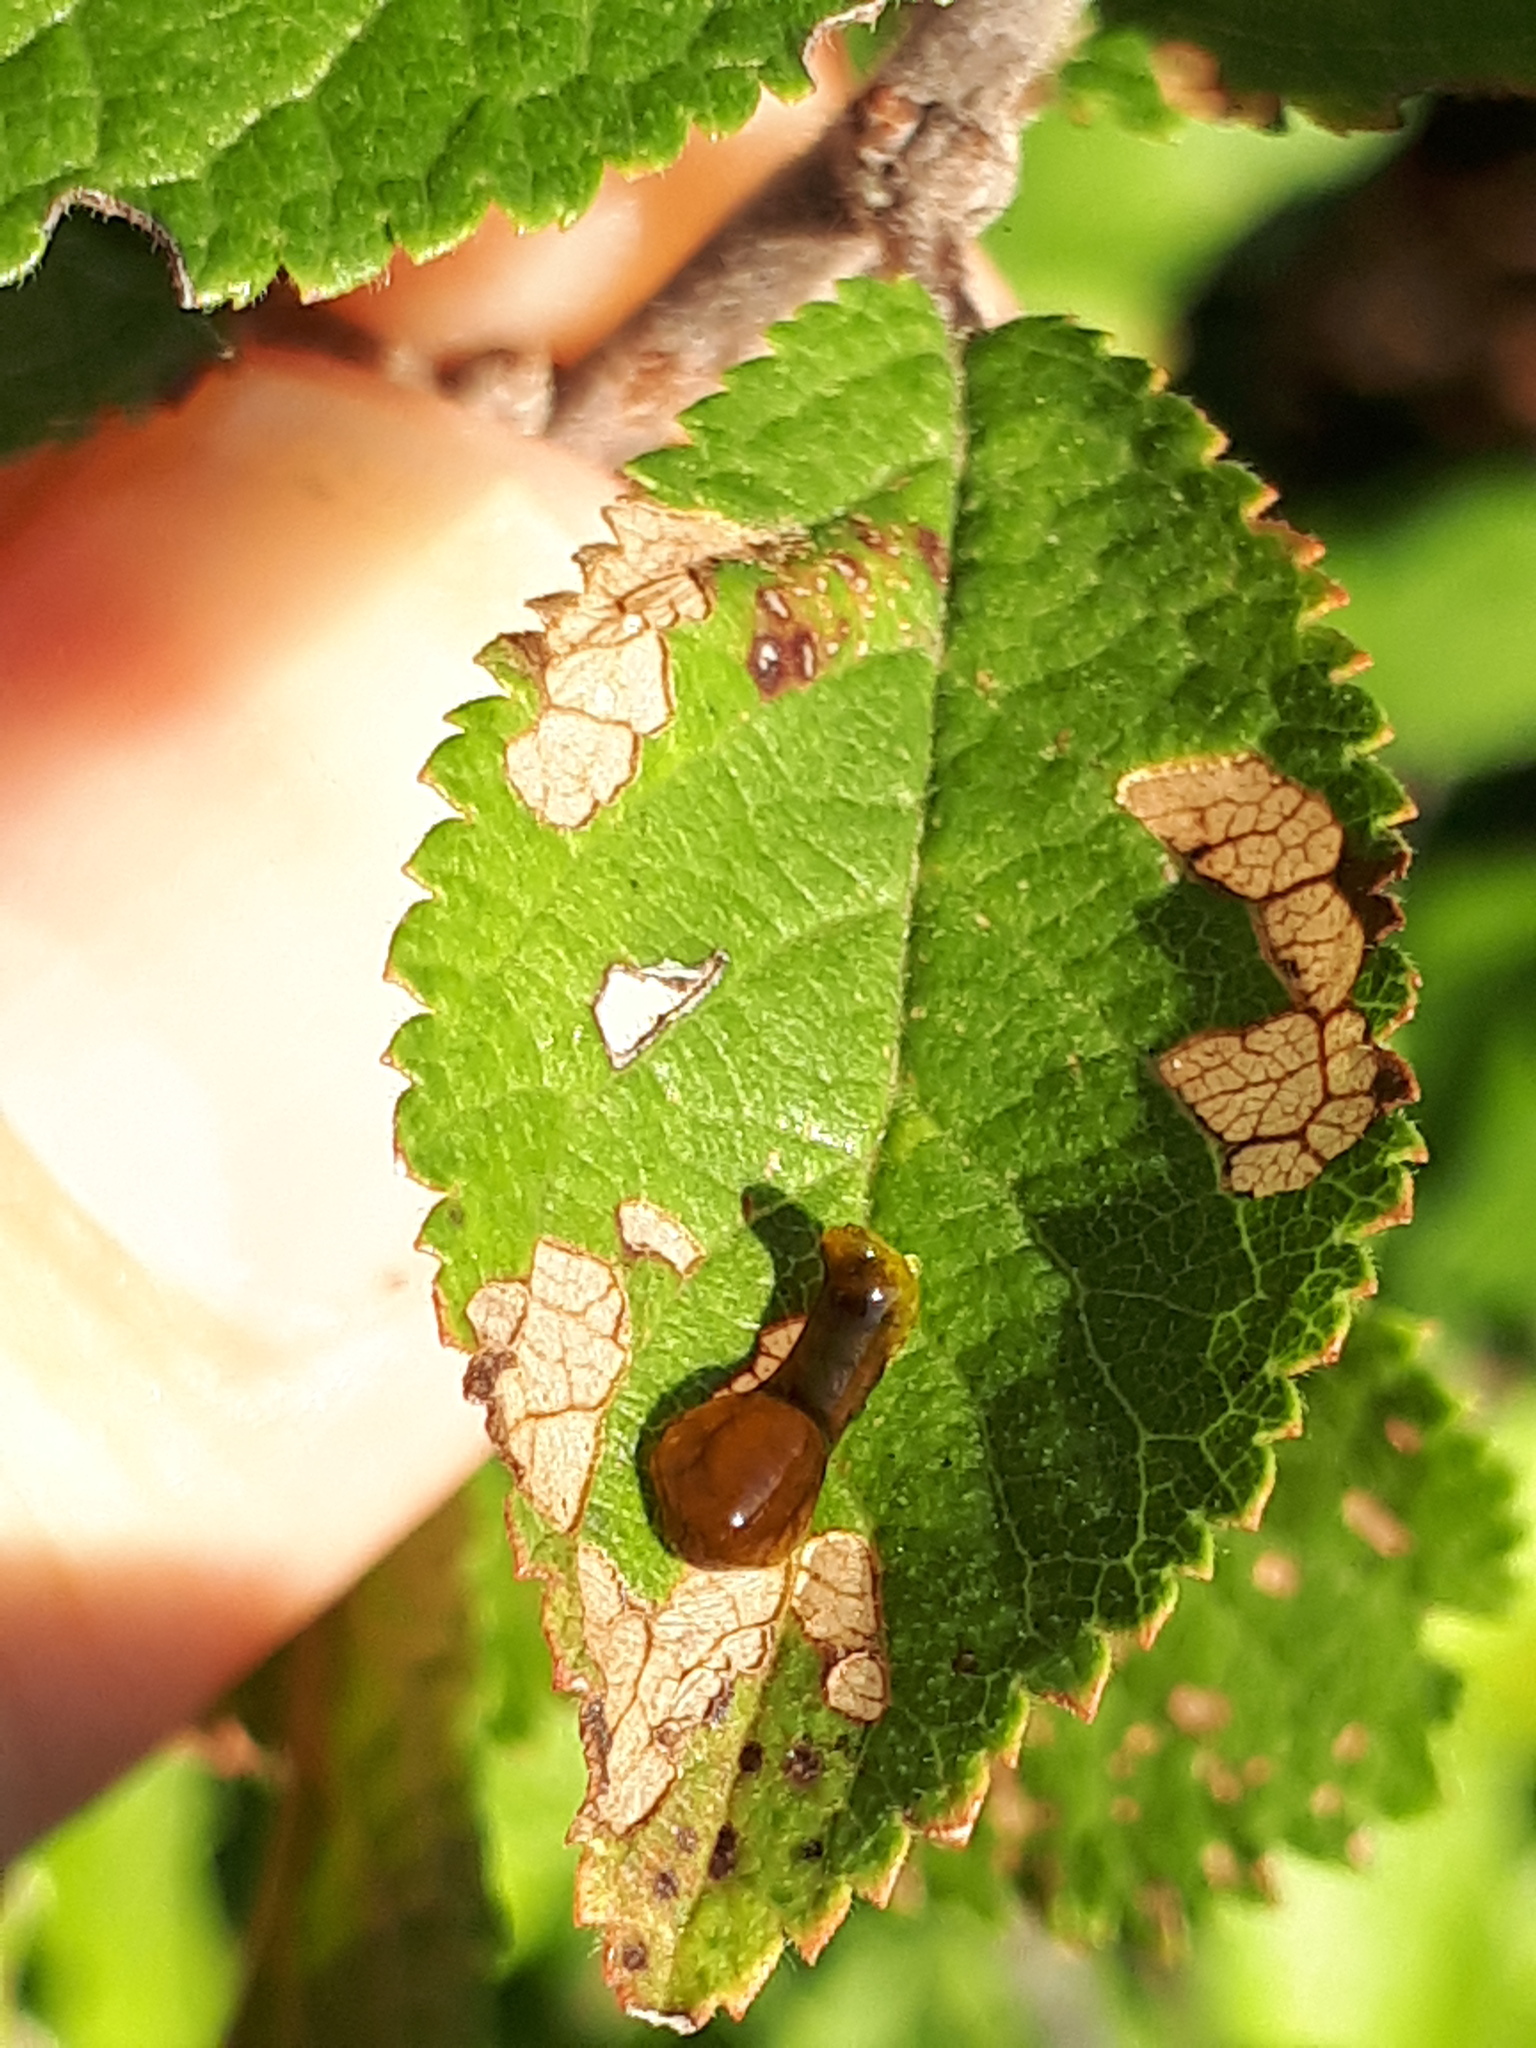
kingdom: Animalia
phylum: Arthropoda
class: Insecta
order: Hymenoptera
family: Tenthredinidae
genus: Caliroa
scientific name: Caliroa cerasi
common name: Pear sawfly
